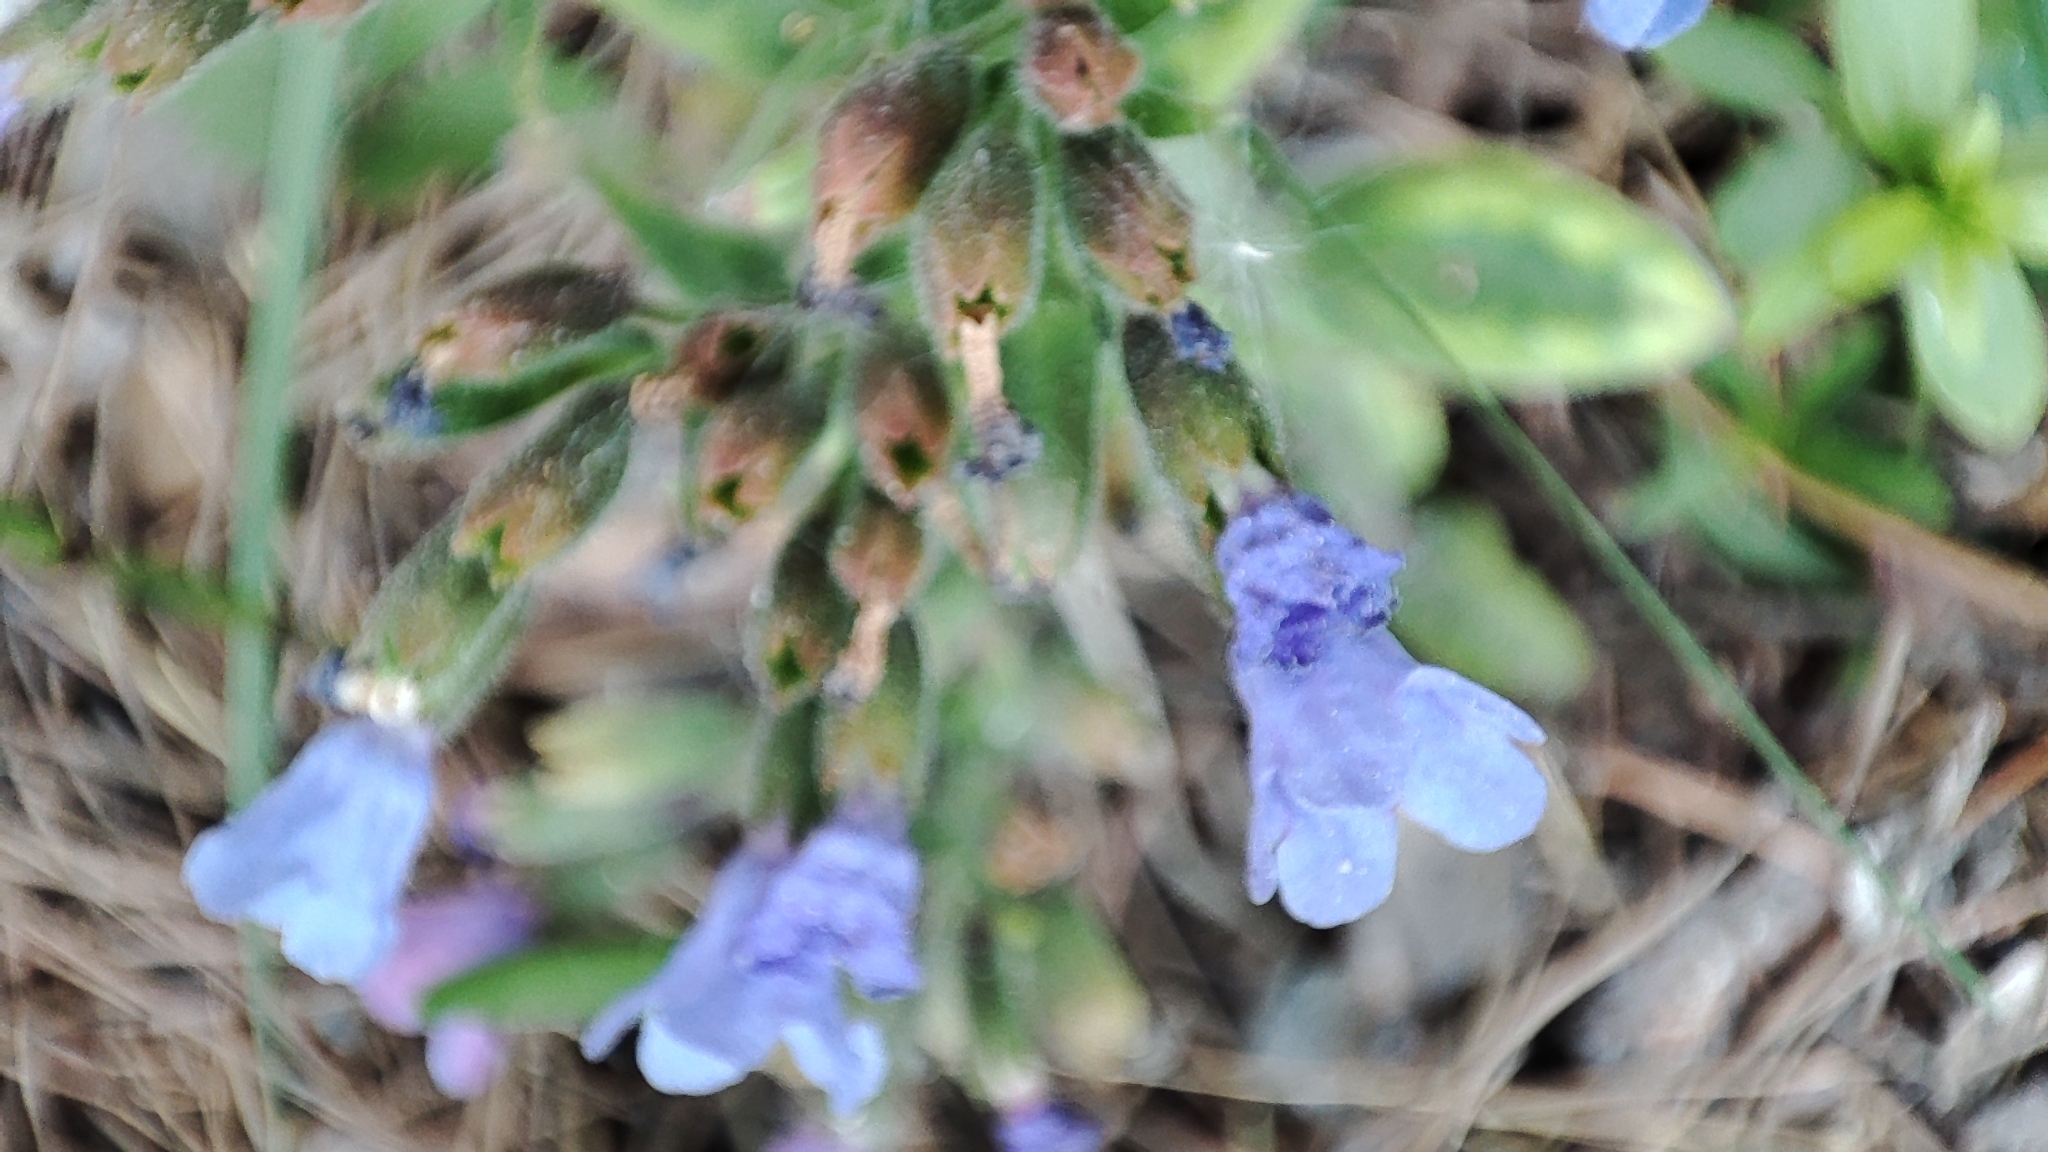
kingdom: Plantae
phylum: Tracheophyta
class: Magnoliopsida
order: Boraginales
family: Boraginaceae
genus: Pulmonaria
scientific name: Pulmonaria mollis
